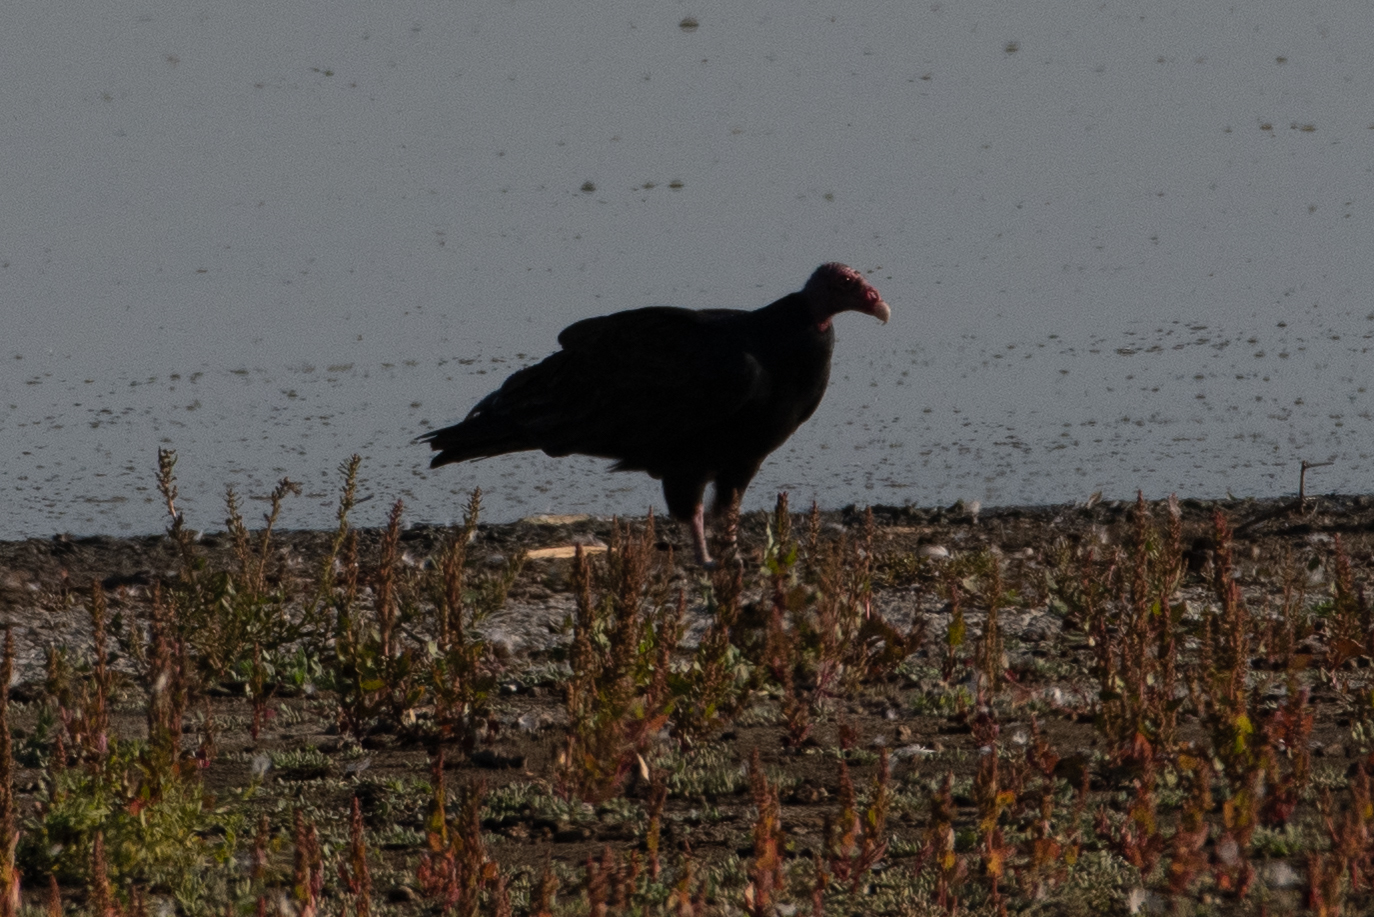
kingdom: Animalia
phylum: Chordata
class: Aves
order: Accipitriformes
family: Cathartidae
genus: Cathartes
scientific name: Cathartes aura
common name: Turkey vulture
